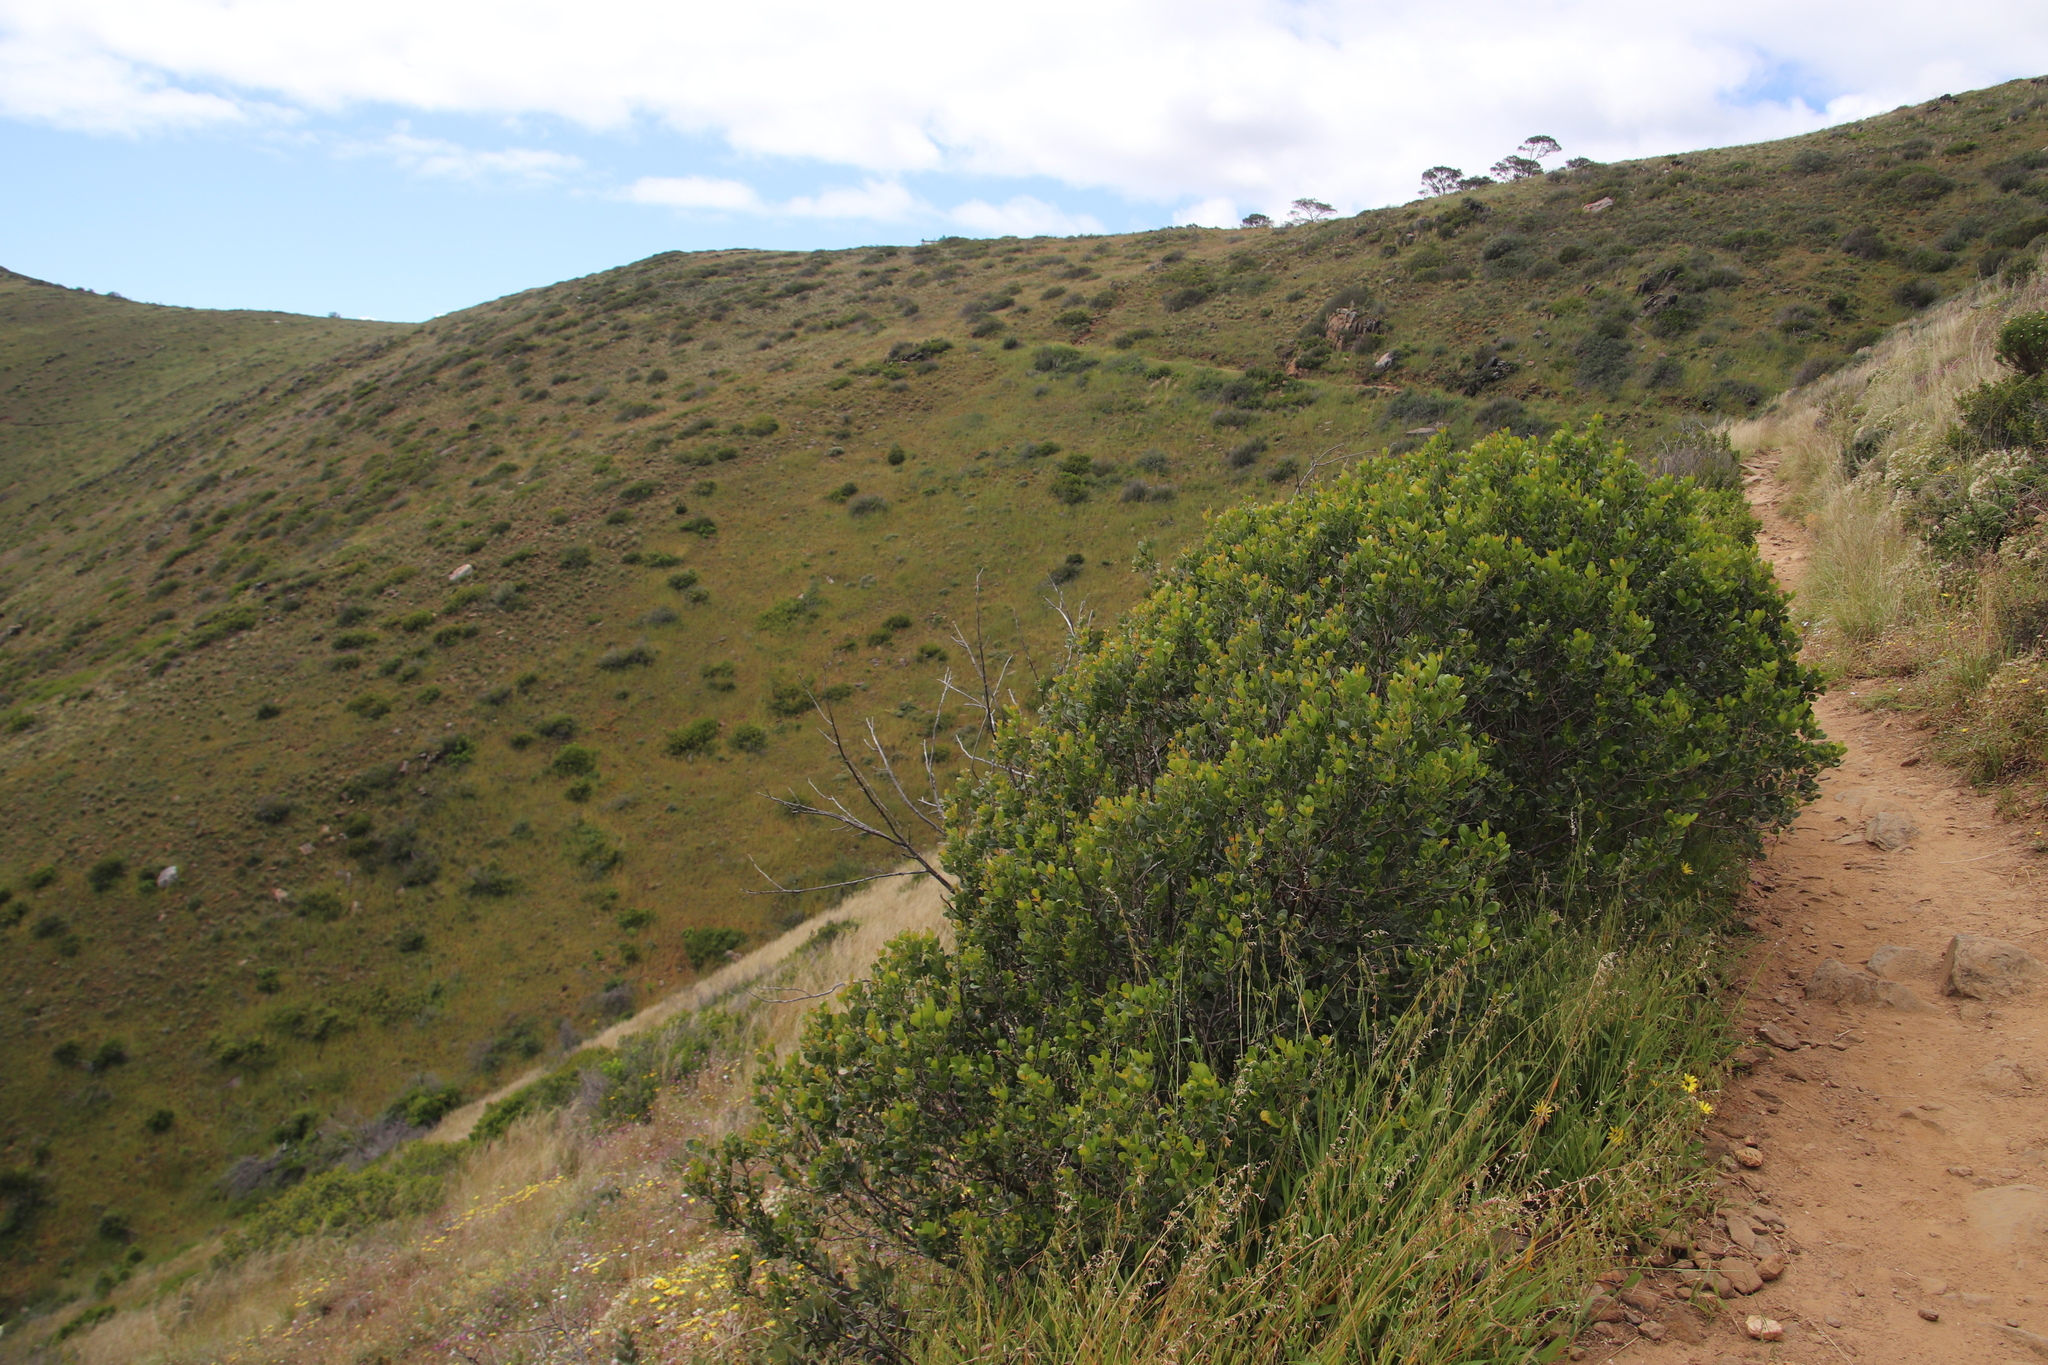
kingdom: Plantae
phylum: Tracheophyta
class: Magnoliopsida
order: Sapindales
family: Anacardiaceae
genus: Searsia
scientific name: Searsia laevigata
